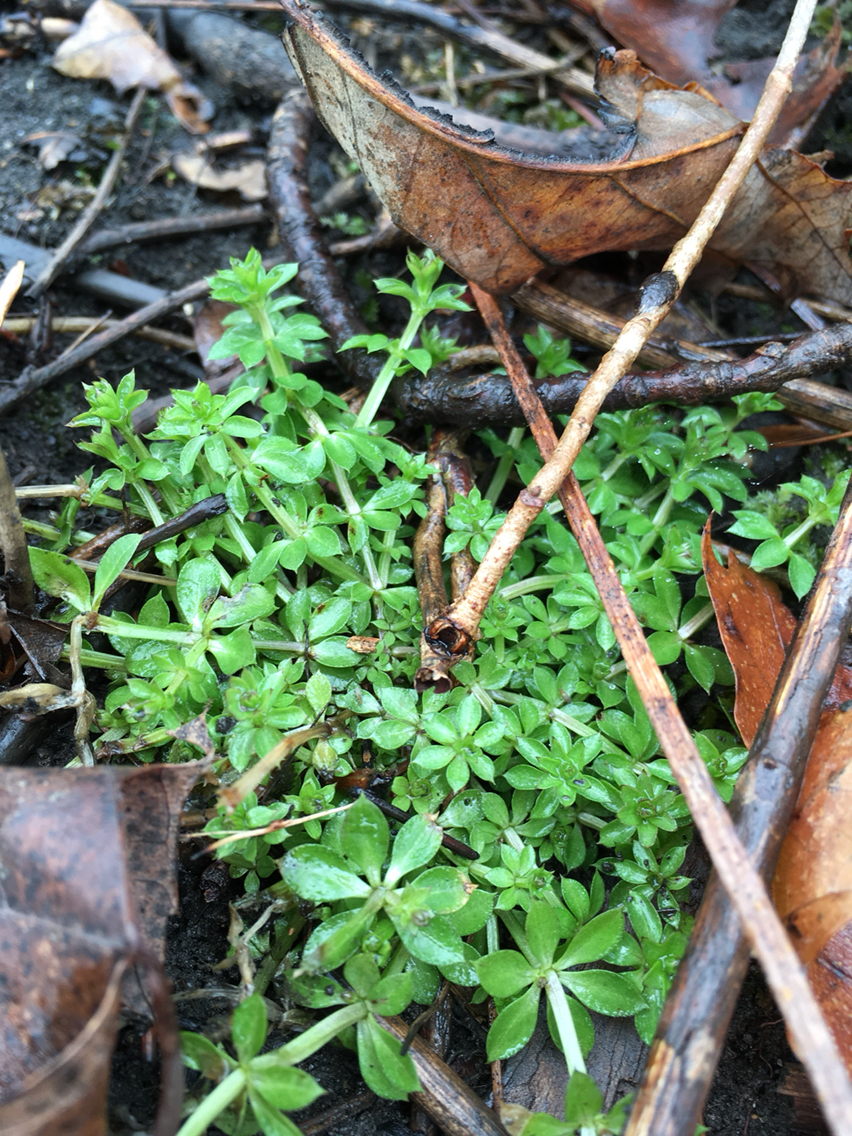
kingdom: Plantae
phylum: Tracheophyta
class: Magnoliopsida
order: Gentianales
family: Rubiaceae
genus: Galium
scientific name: Galium triflorum
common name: Fragrant bedstraw
